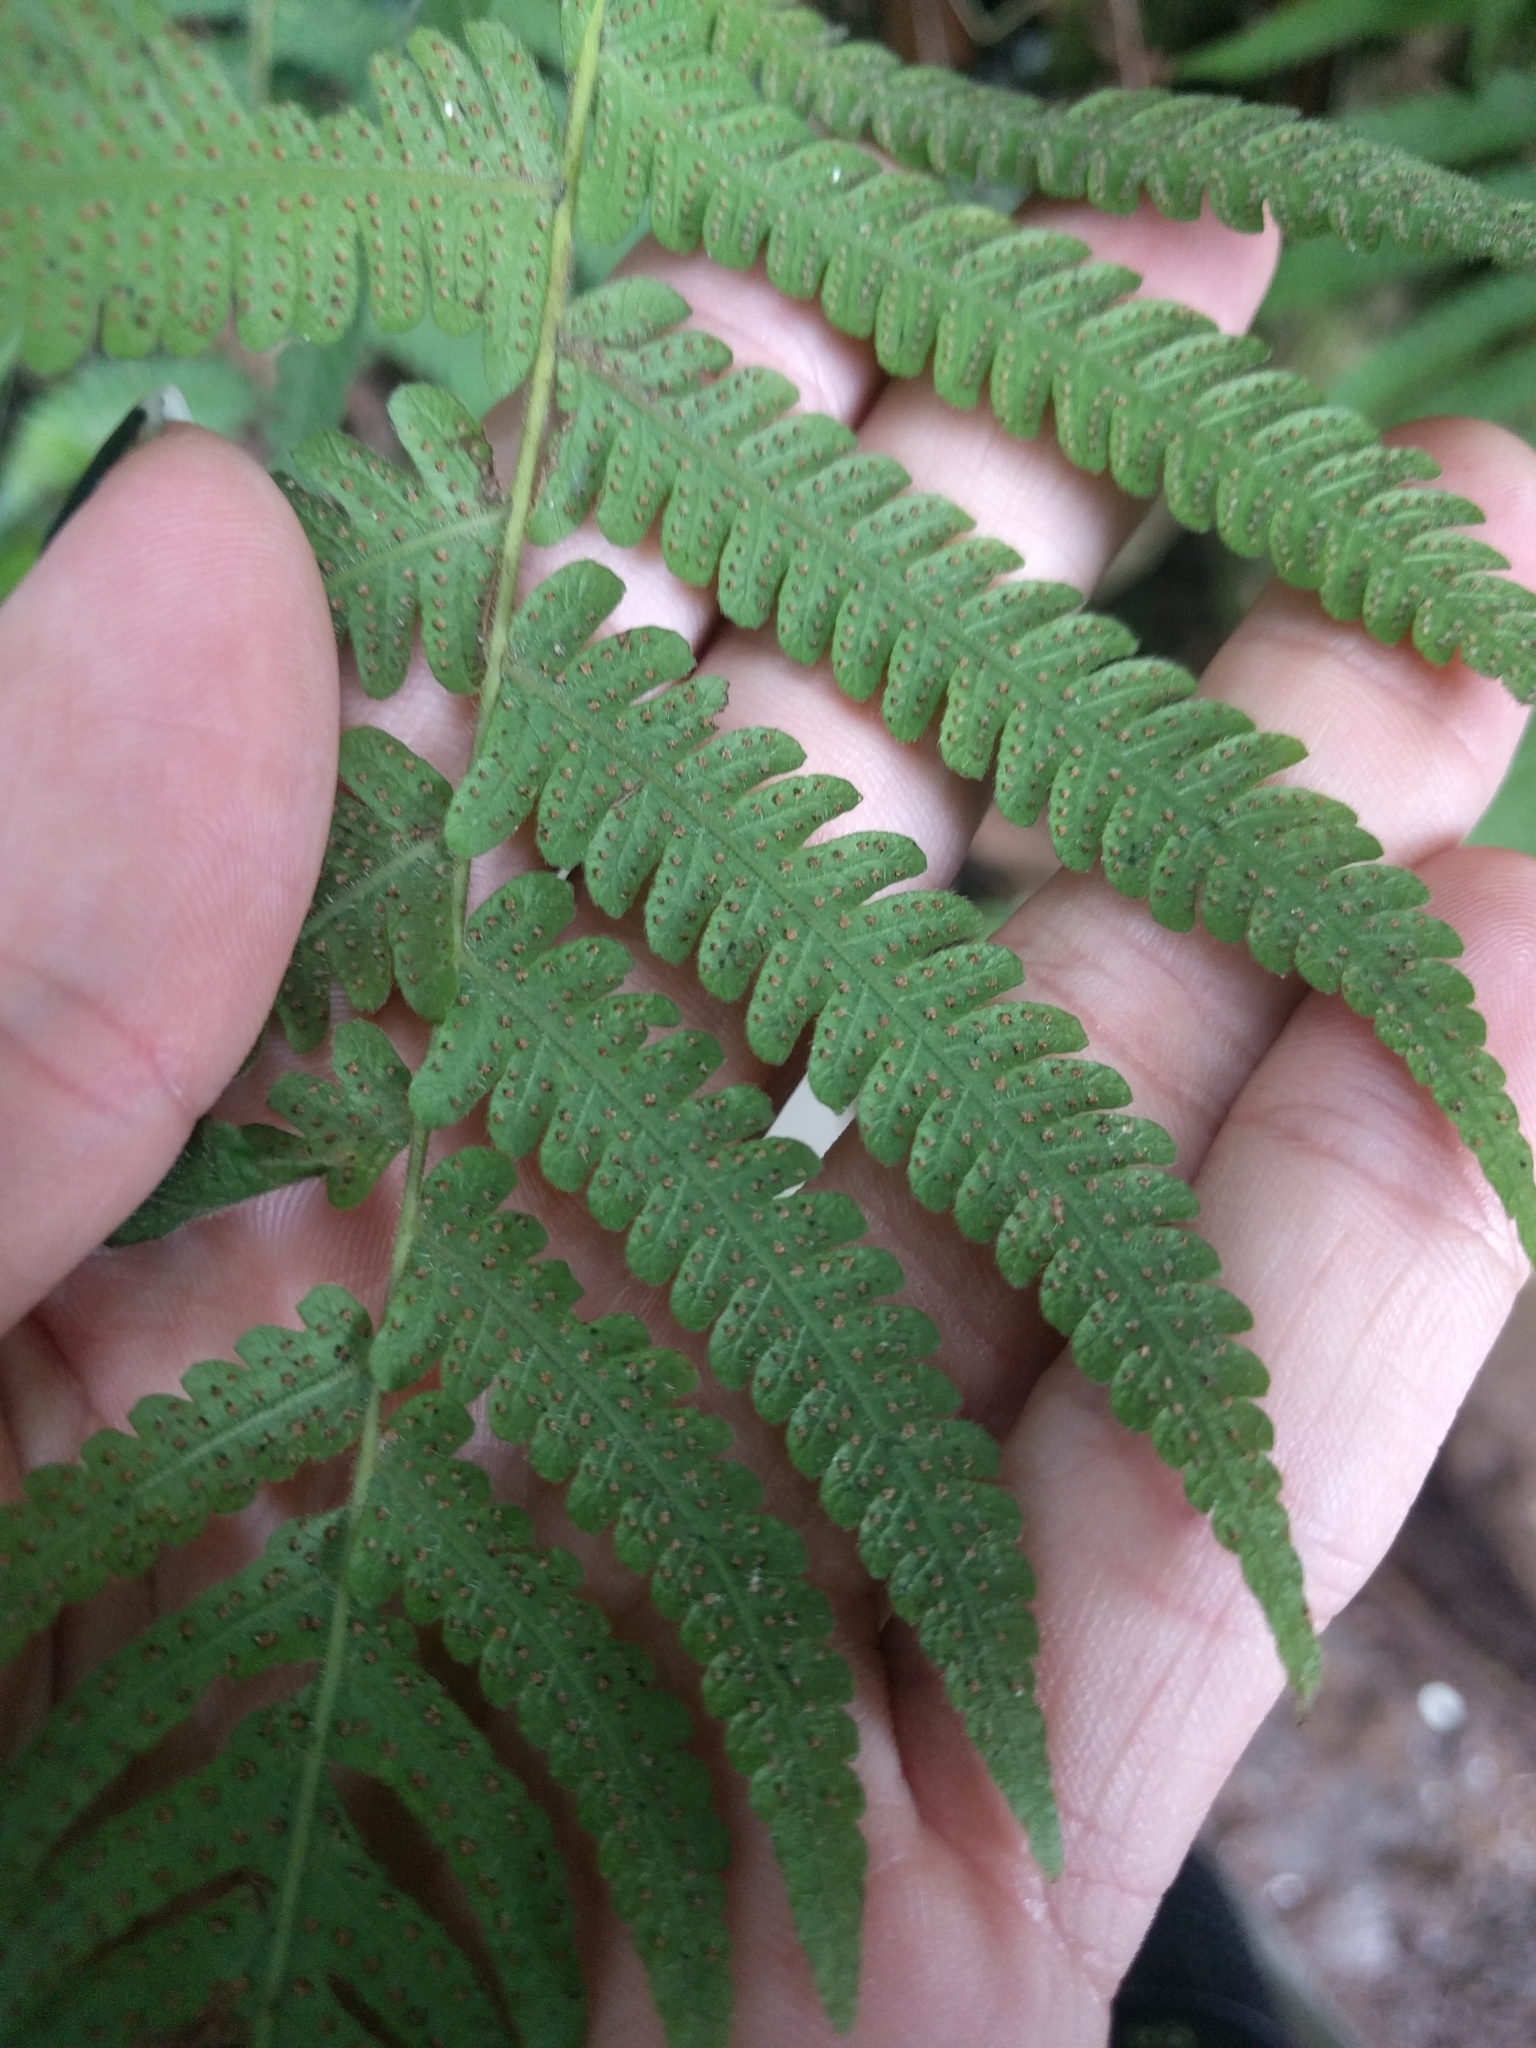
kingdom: Plantae
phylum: Tracheophyta
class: Polypodiopsida
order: Polypodiales
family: Thelypteridaceae
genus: Christella
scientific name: Christella parasitica
